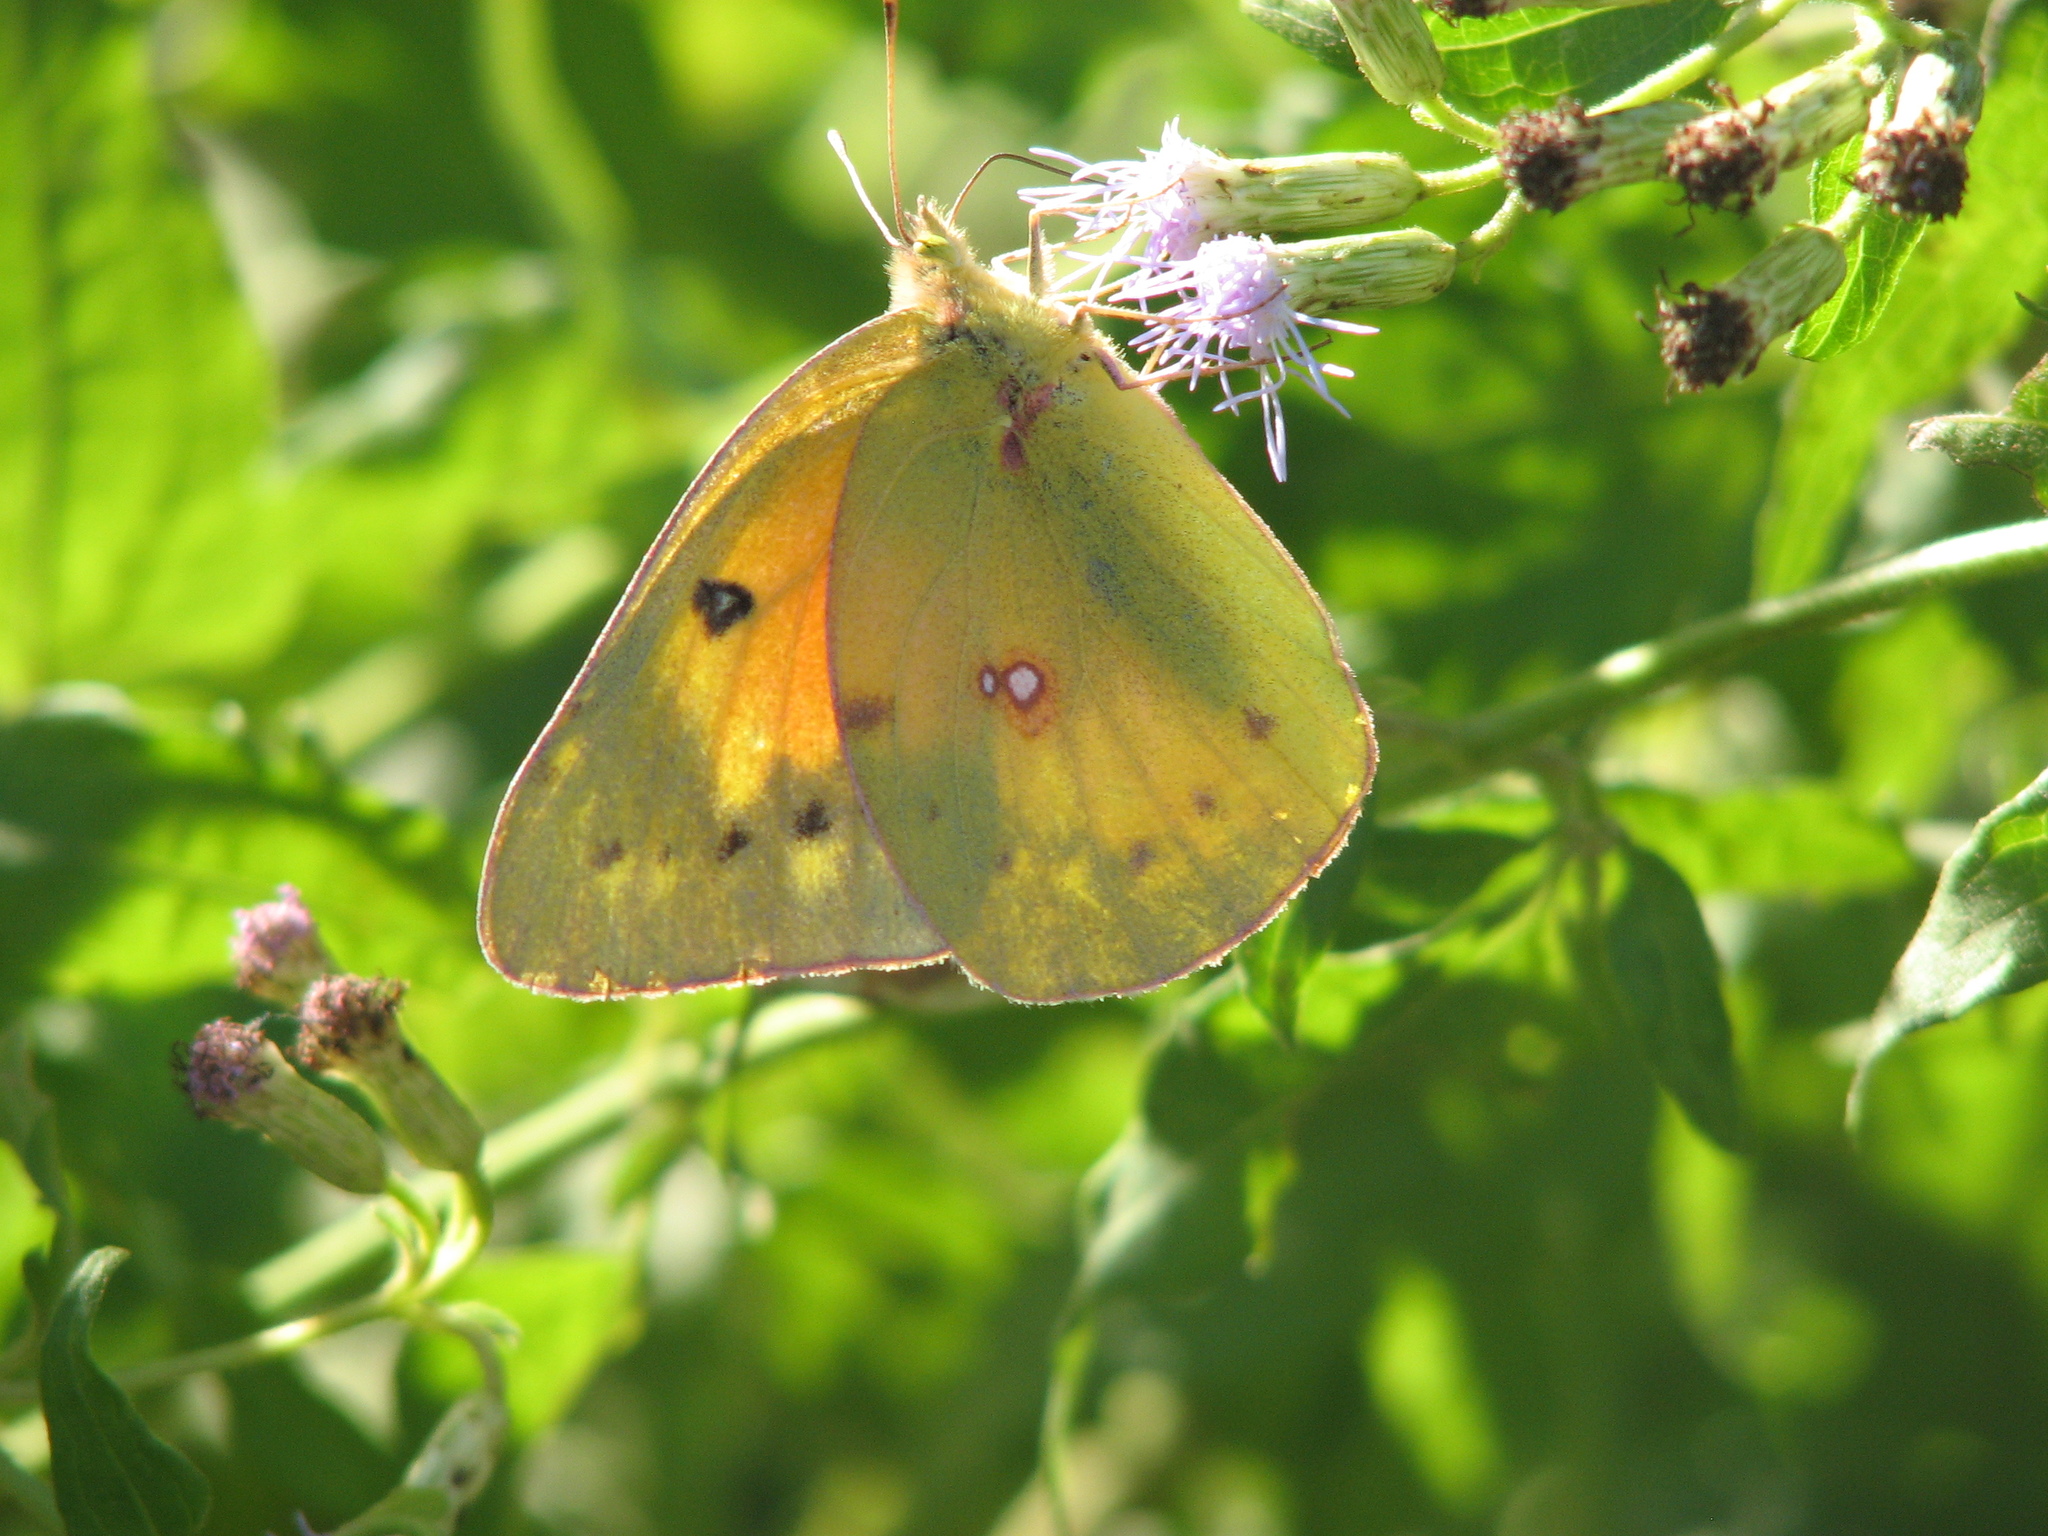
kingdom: Animalia
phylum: Arthropoda
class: Insecta
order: Lepidoptera
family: Pieridae
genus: Colias
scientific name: Colias eurytheme
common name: Alfalfa butterfly
